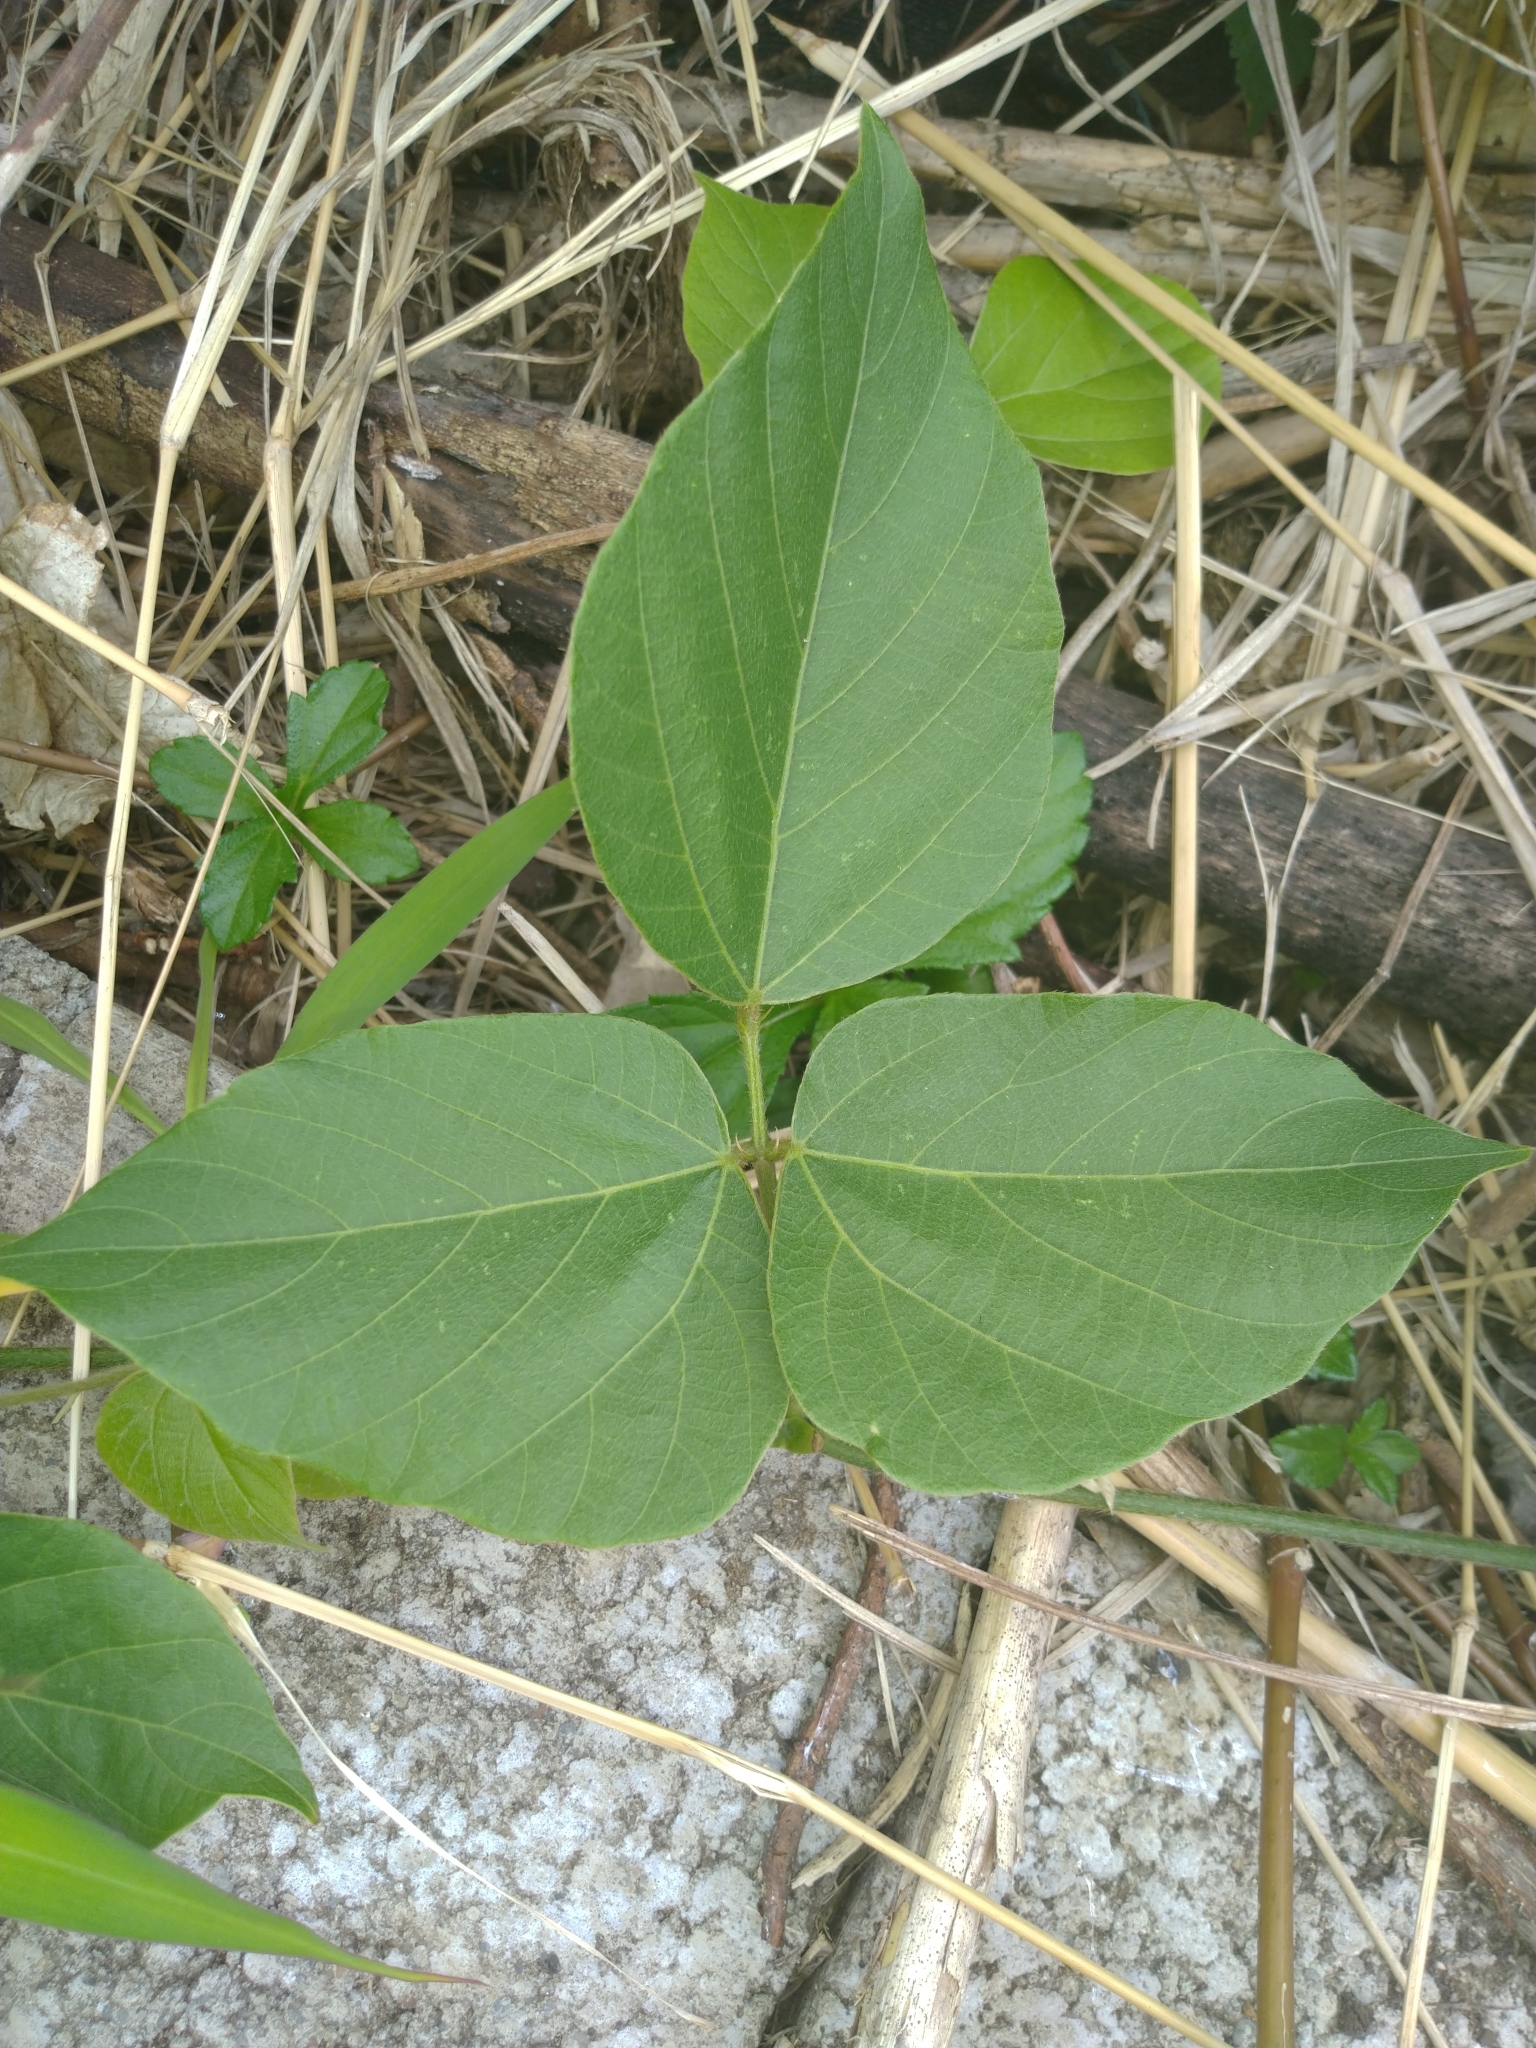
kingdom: Plantae
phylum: Tracheophyta
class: Magnoliopsida
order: Fabales
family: Fabaceae
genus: Pueraria
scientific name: Pueraria montana
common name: Kudzu
